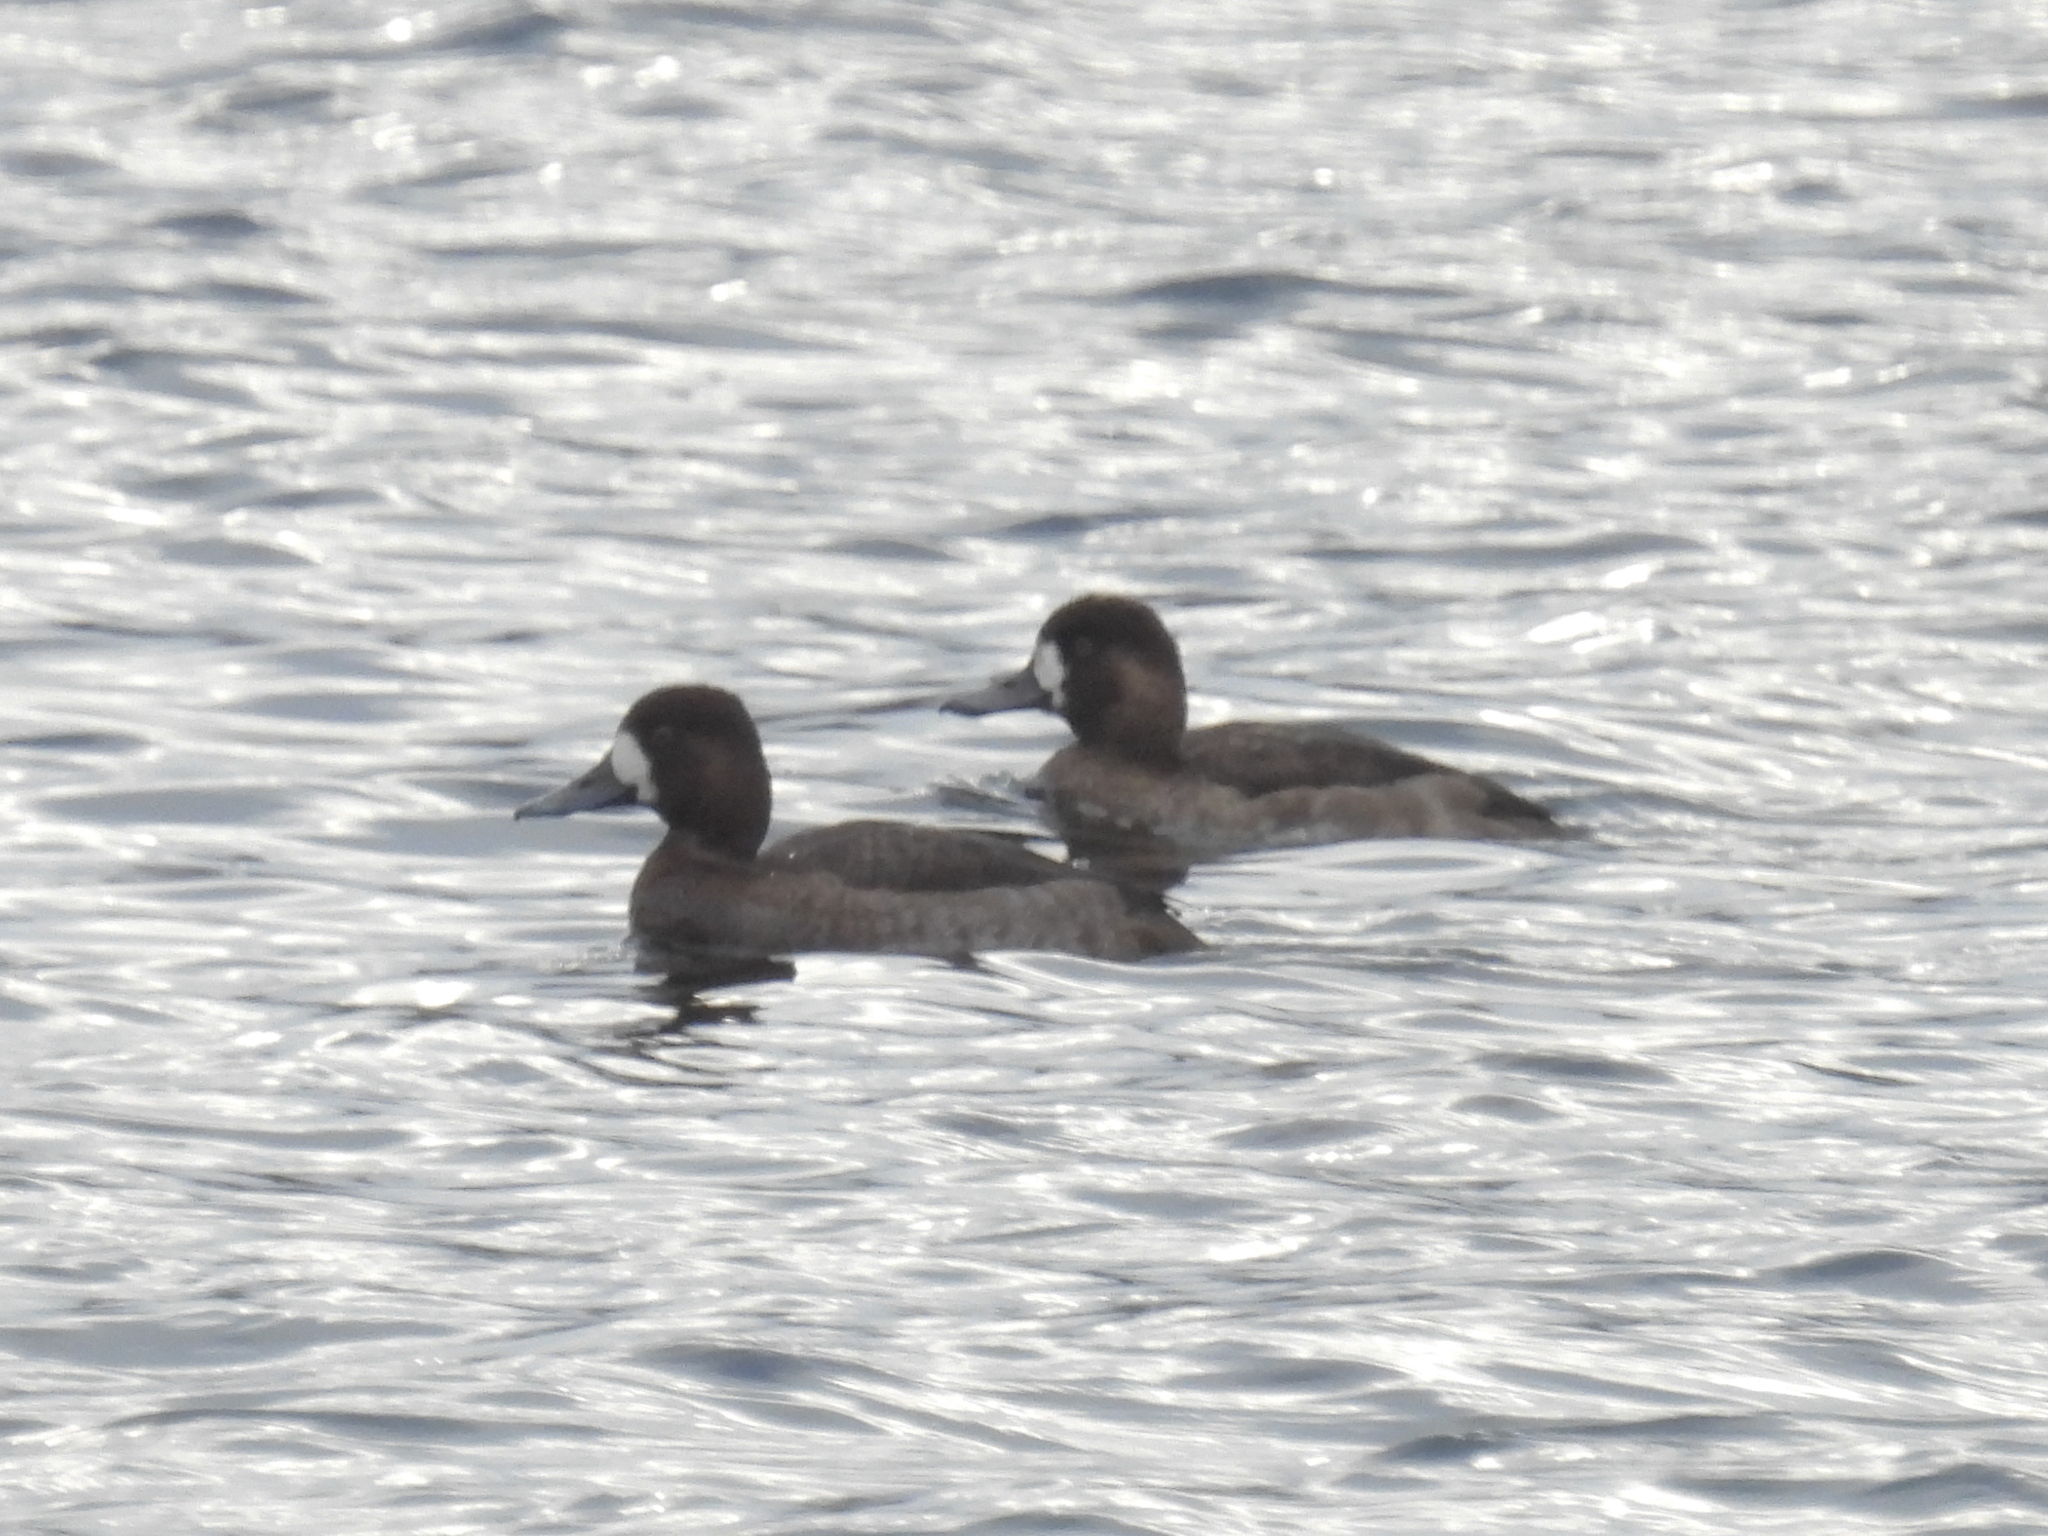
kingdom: Animalia
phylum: Chordata
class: Aves
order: Anseriformes
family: Anatidae
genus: Aythya
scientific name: Aythya affinis
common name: Lesser scaup
